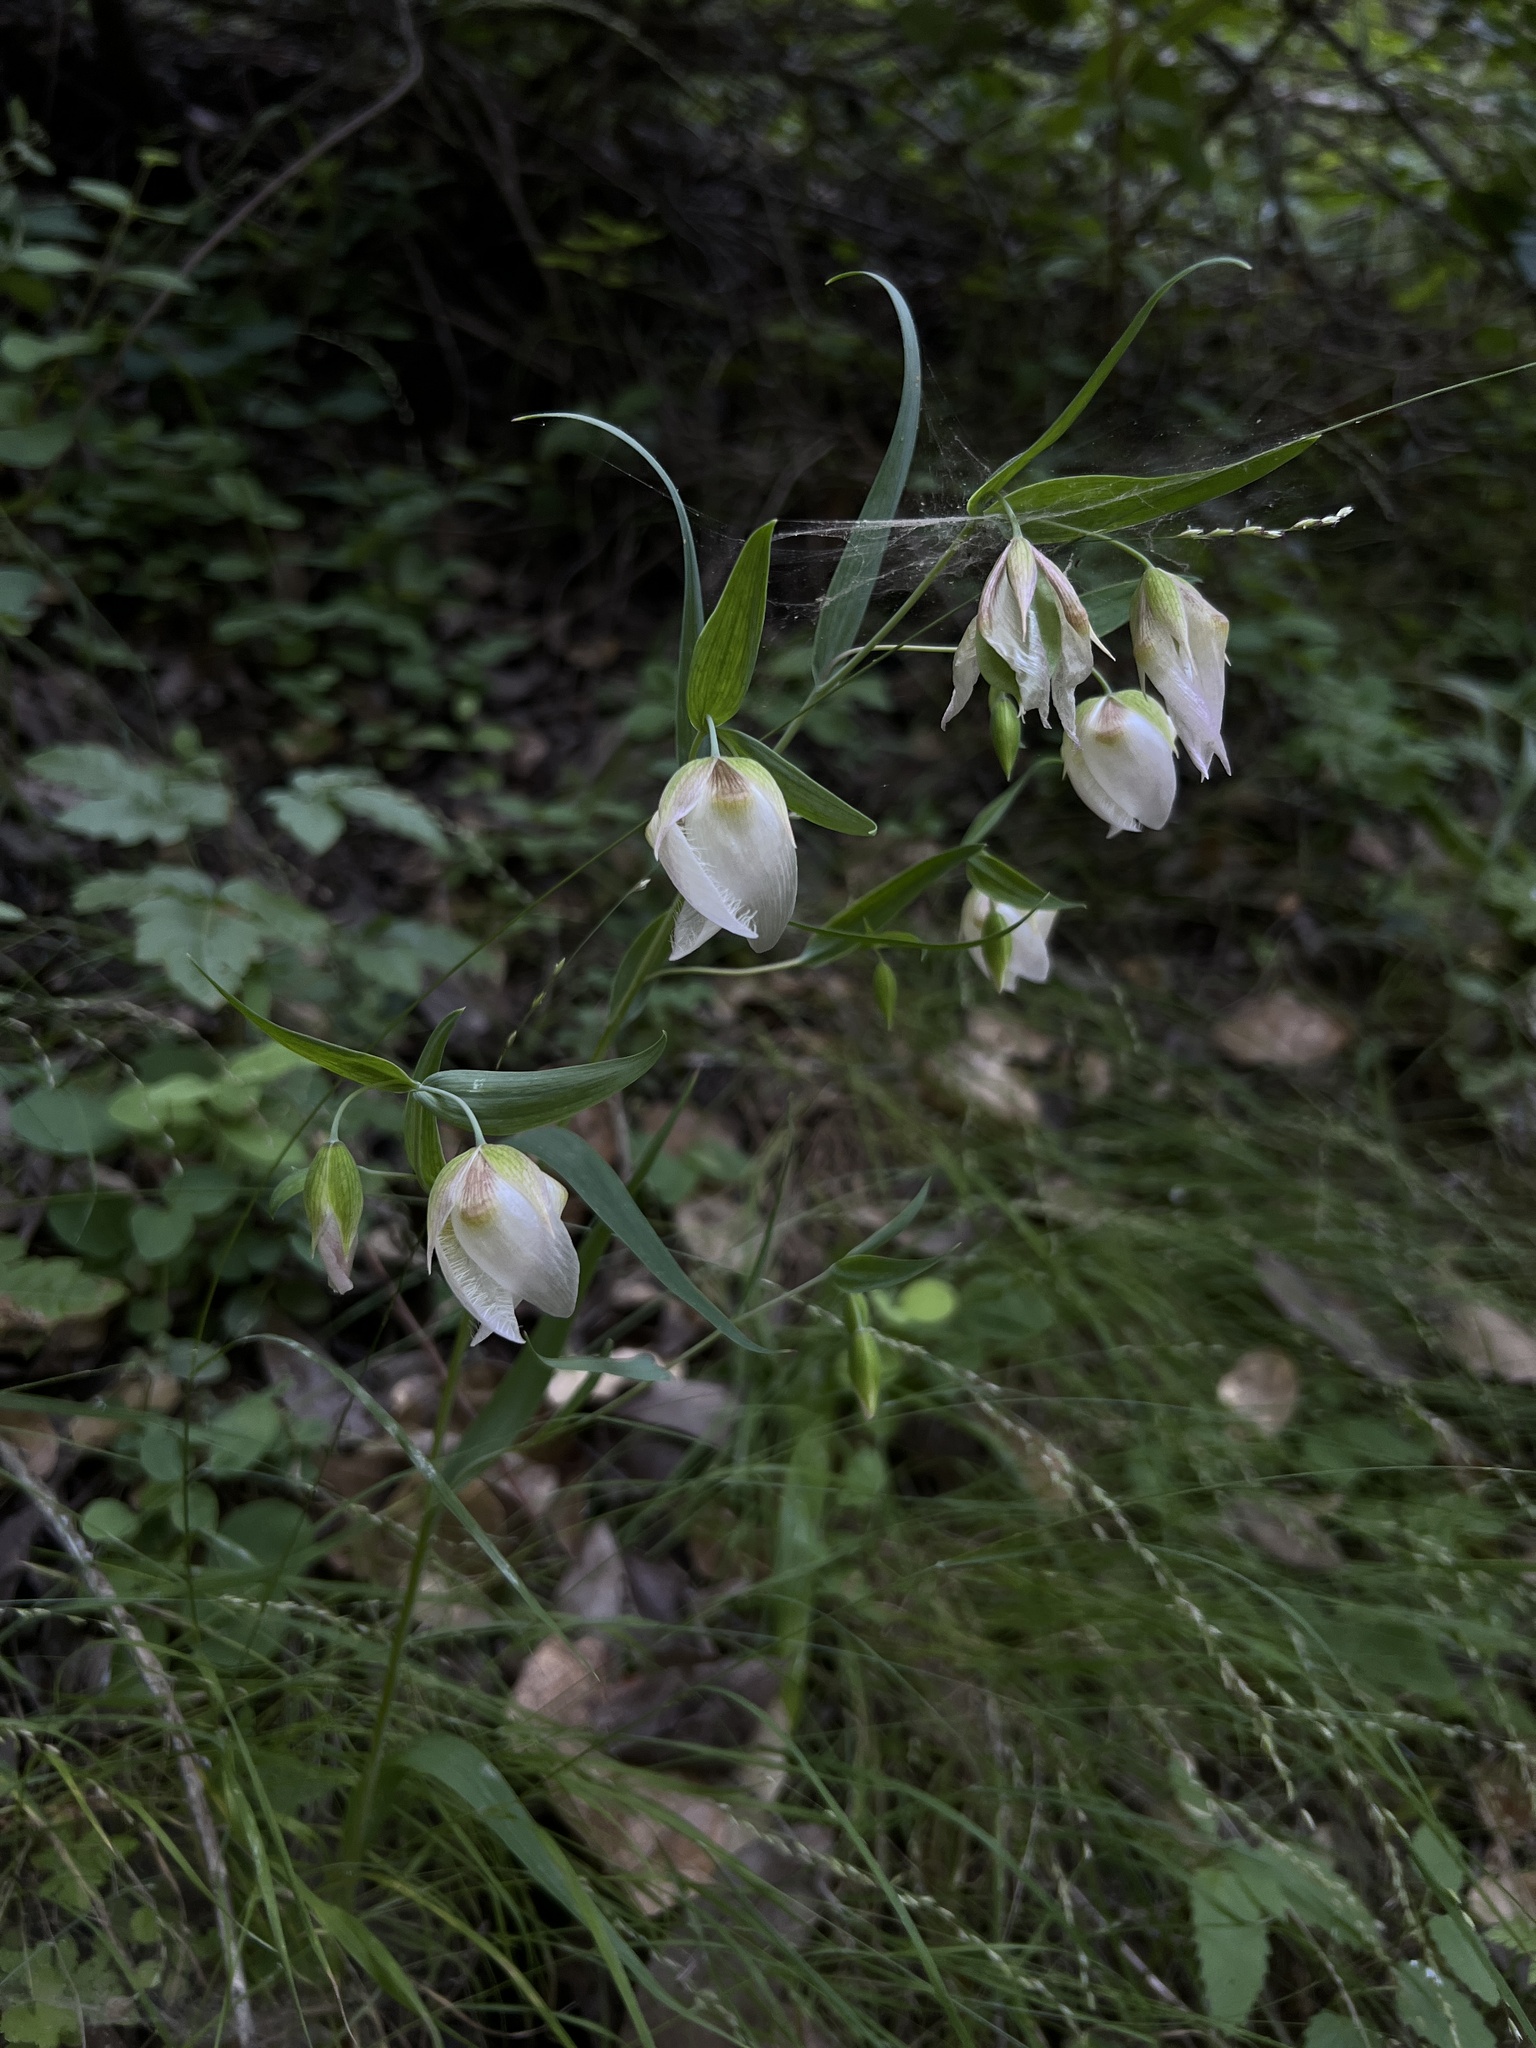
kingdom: Plantae
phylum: Tracheophyta
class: Liliopsida
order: Liliales
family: Liliaceae
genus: Calochortus
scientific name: Calochortus albus
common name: Fairy-lantern
